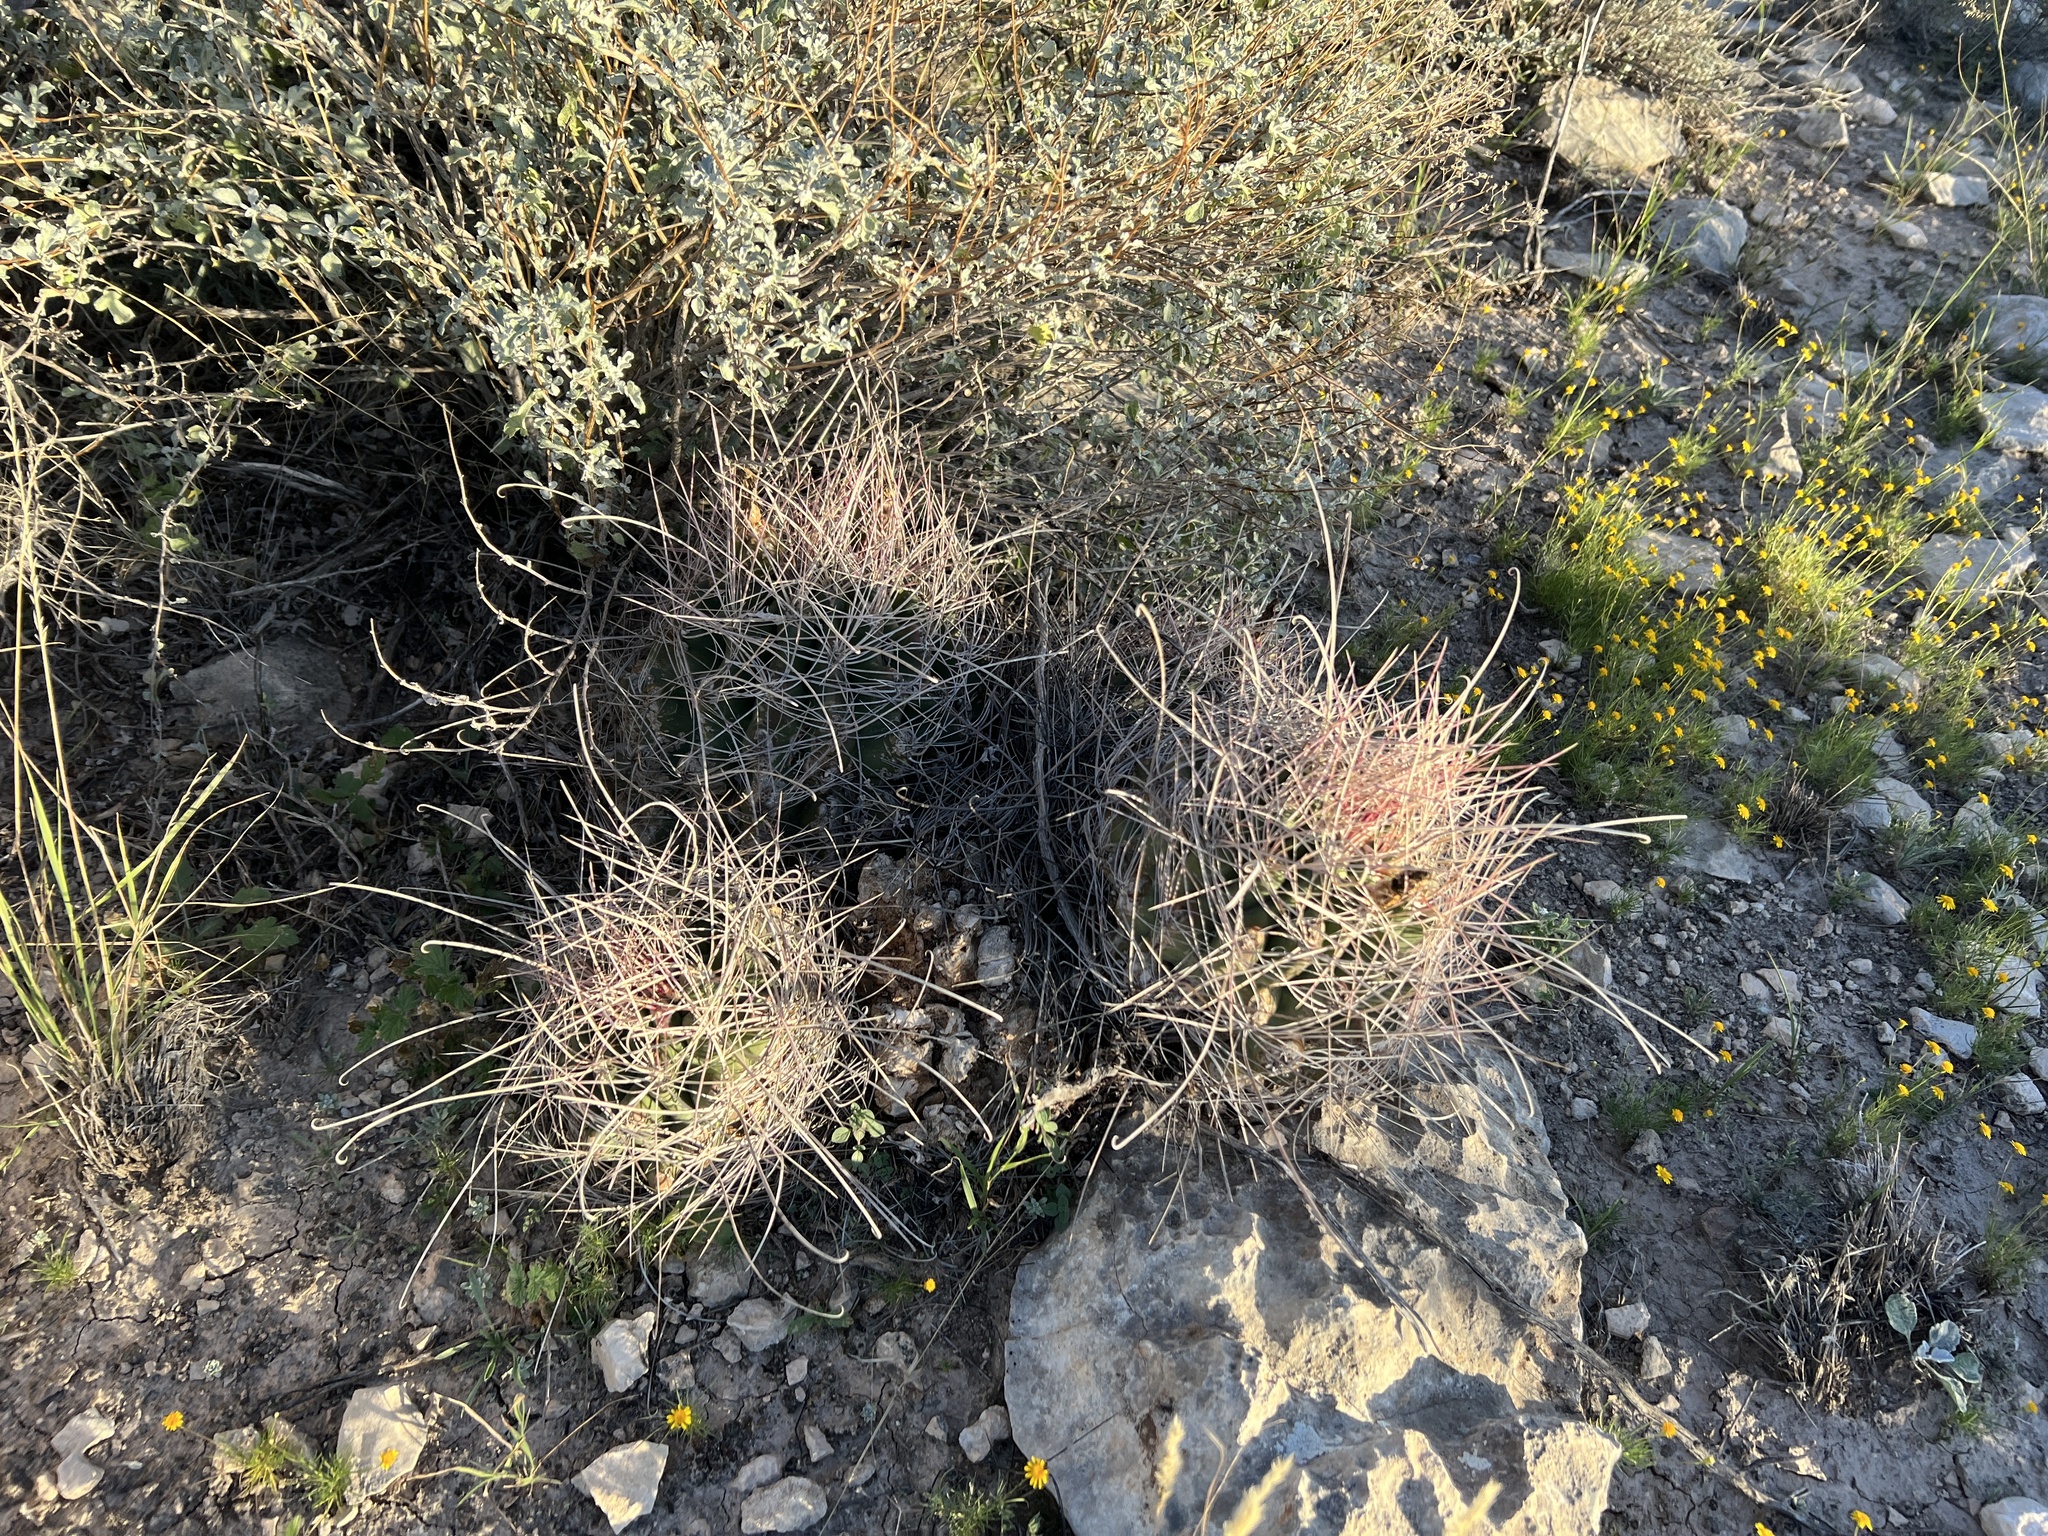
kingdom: Plantae
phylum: Tracheophyta
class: Magnoliopsida
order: Caryophyllales
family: Cactaceae
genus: Bisnaga
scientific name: Bisnaga hamatacantha
